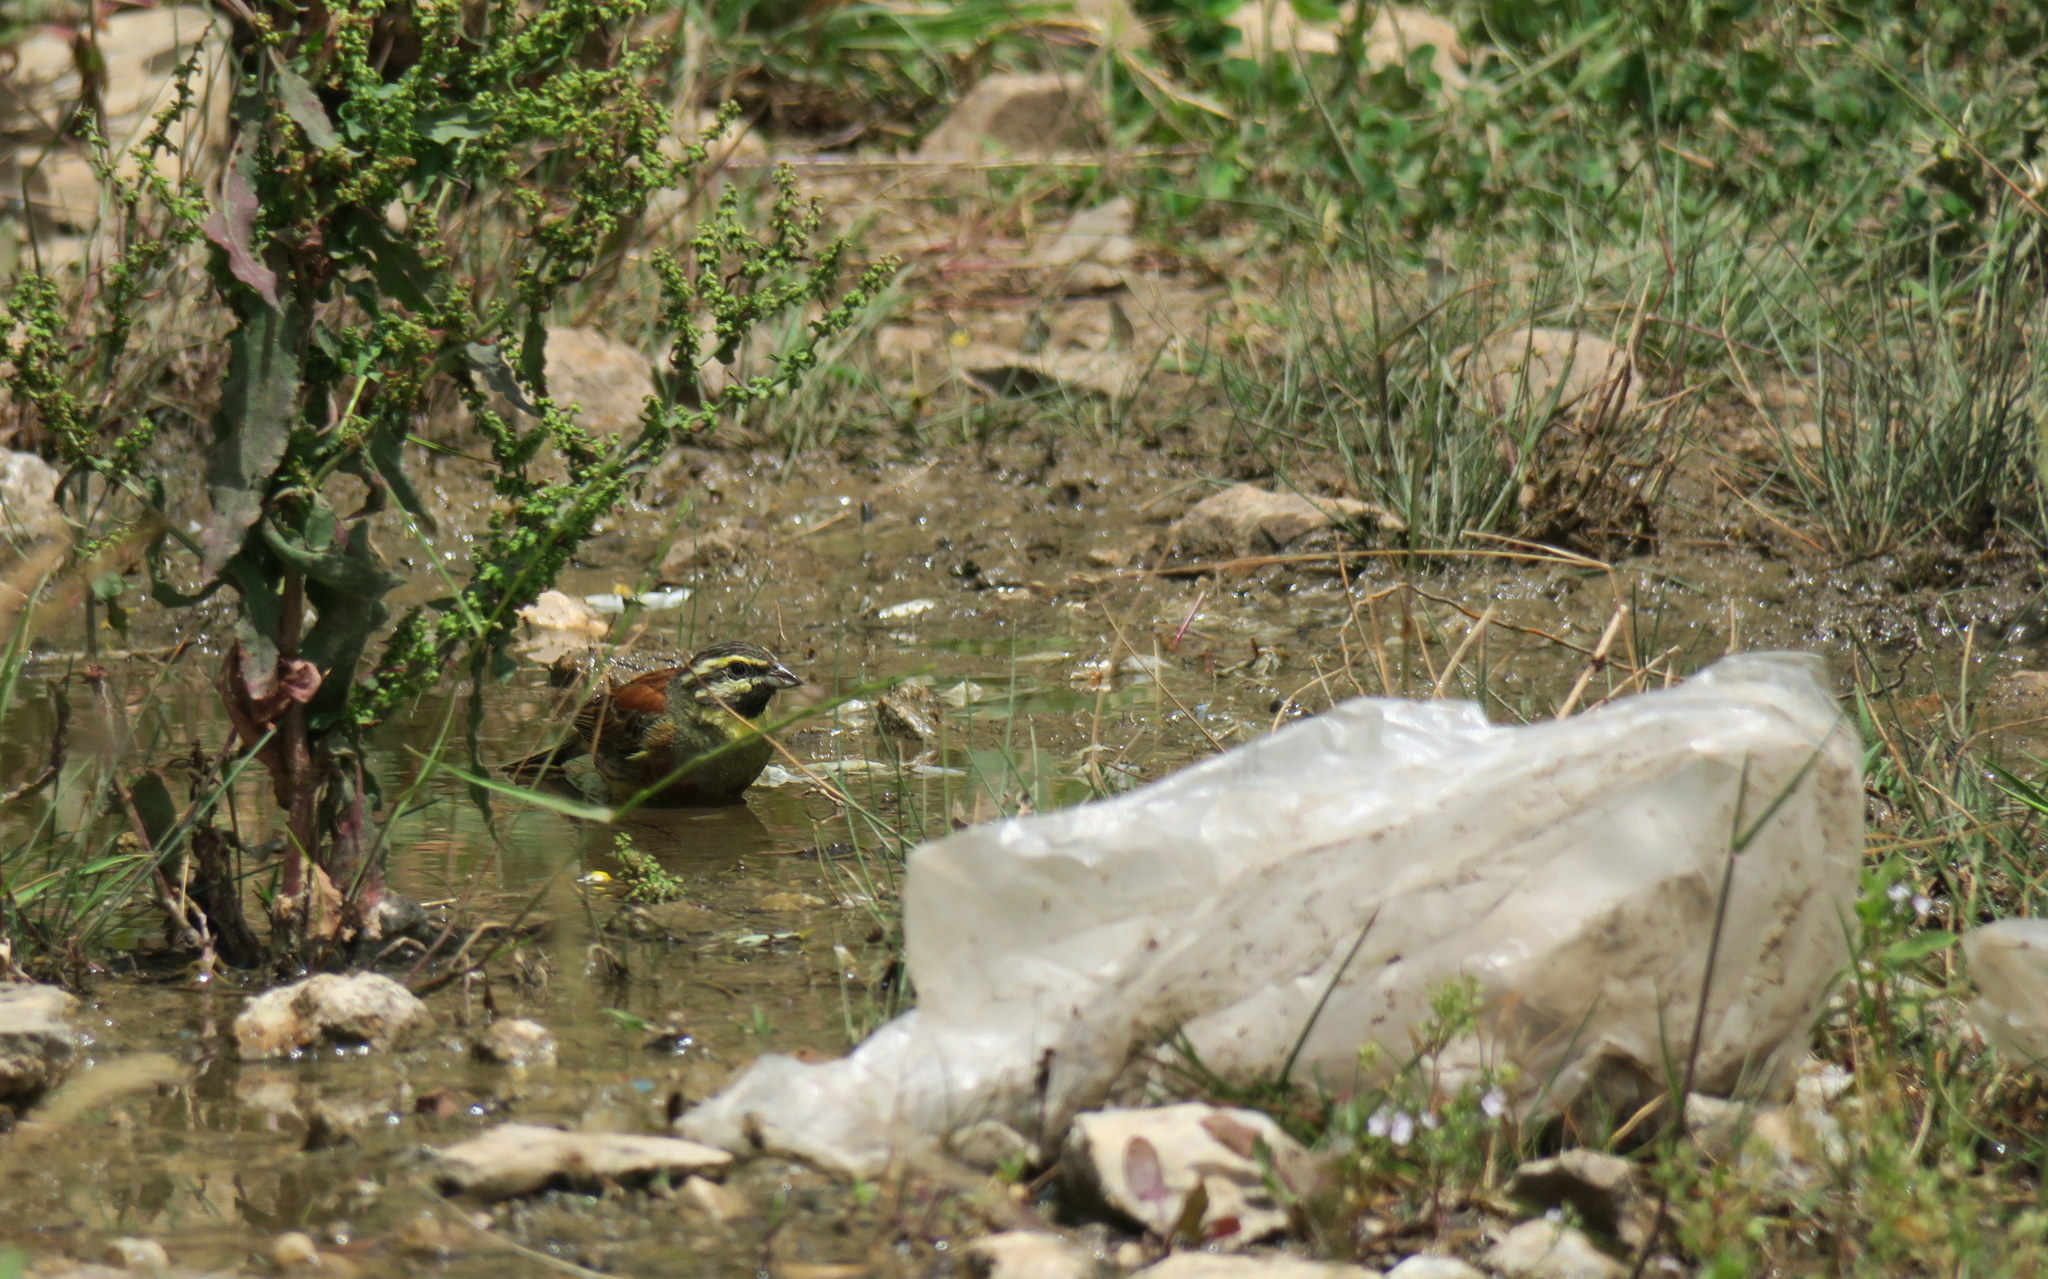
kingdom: Animalia
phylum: Chordata
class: Aves
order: Passeriformes
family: Emberizidae
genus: Emberiza
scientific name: Emberiza cirlus
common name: Cirl bunting
